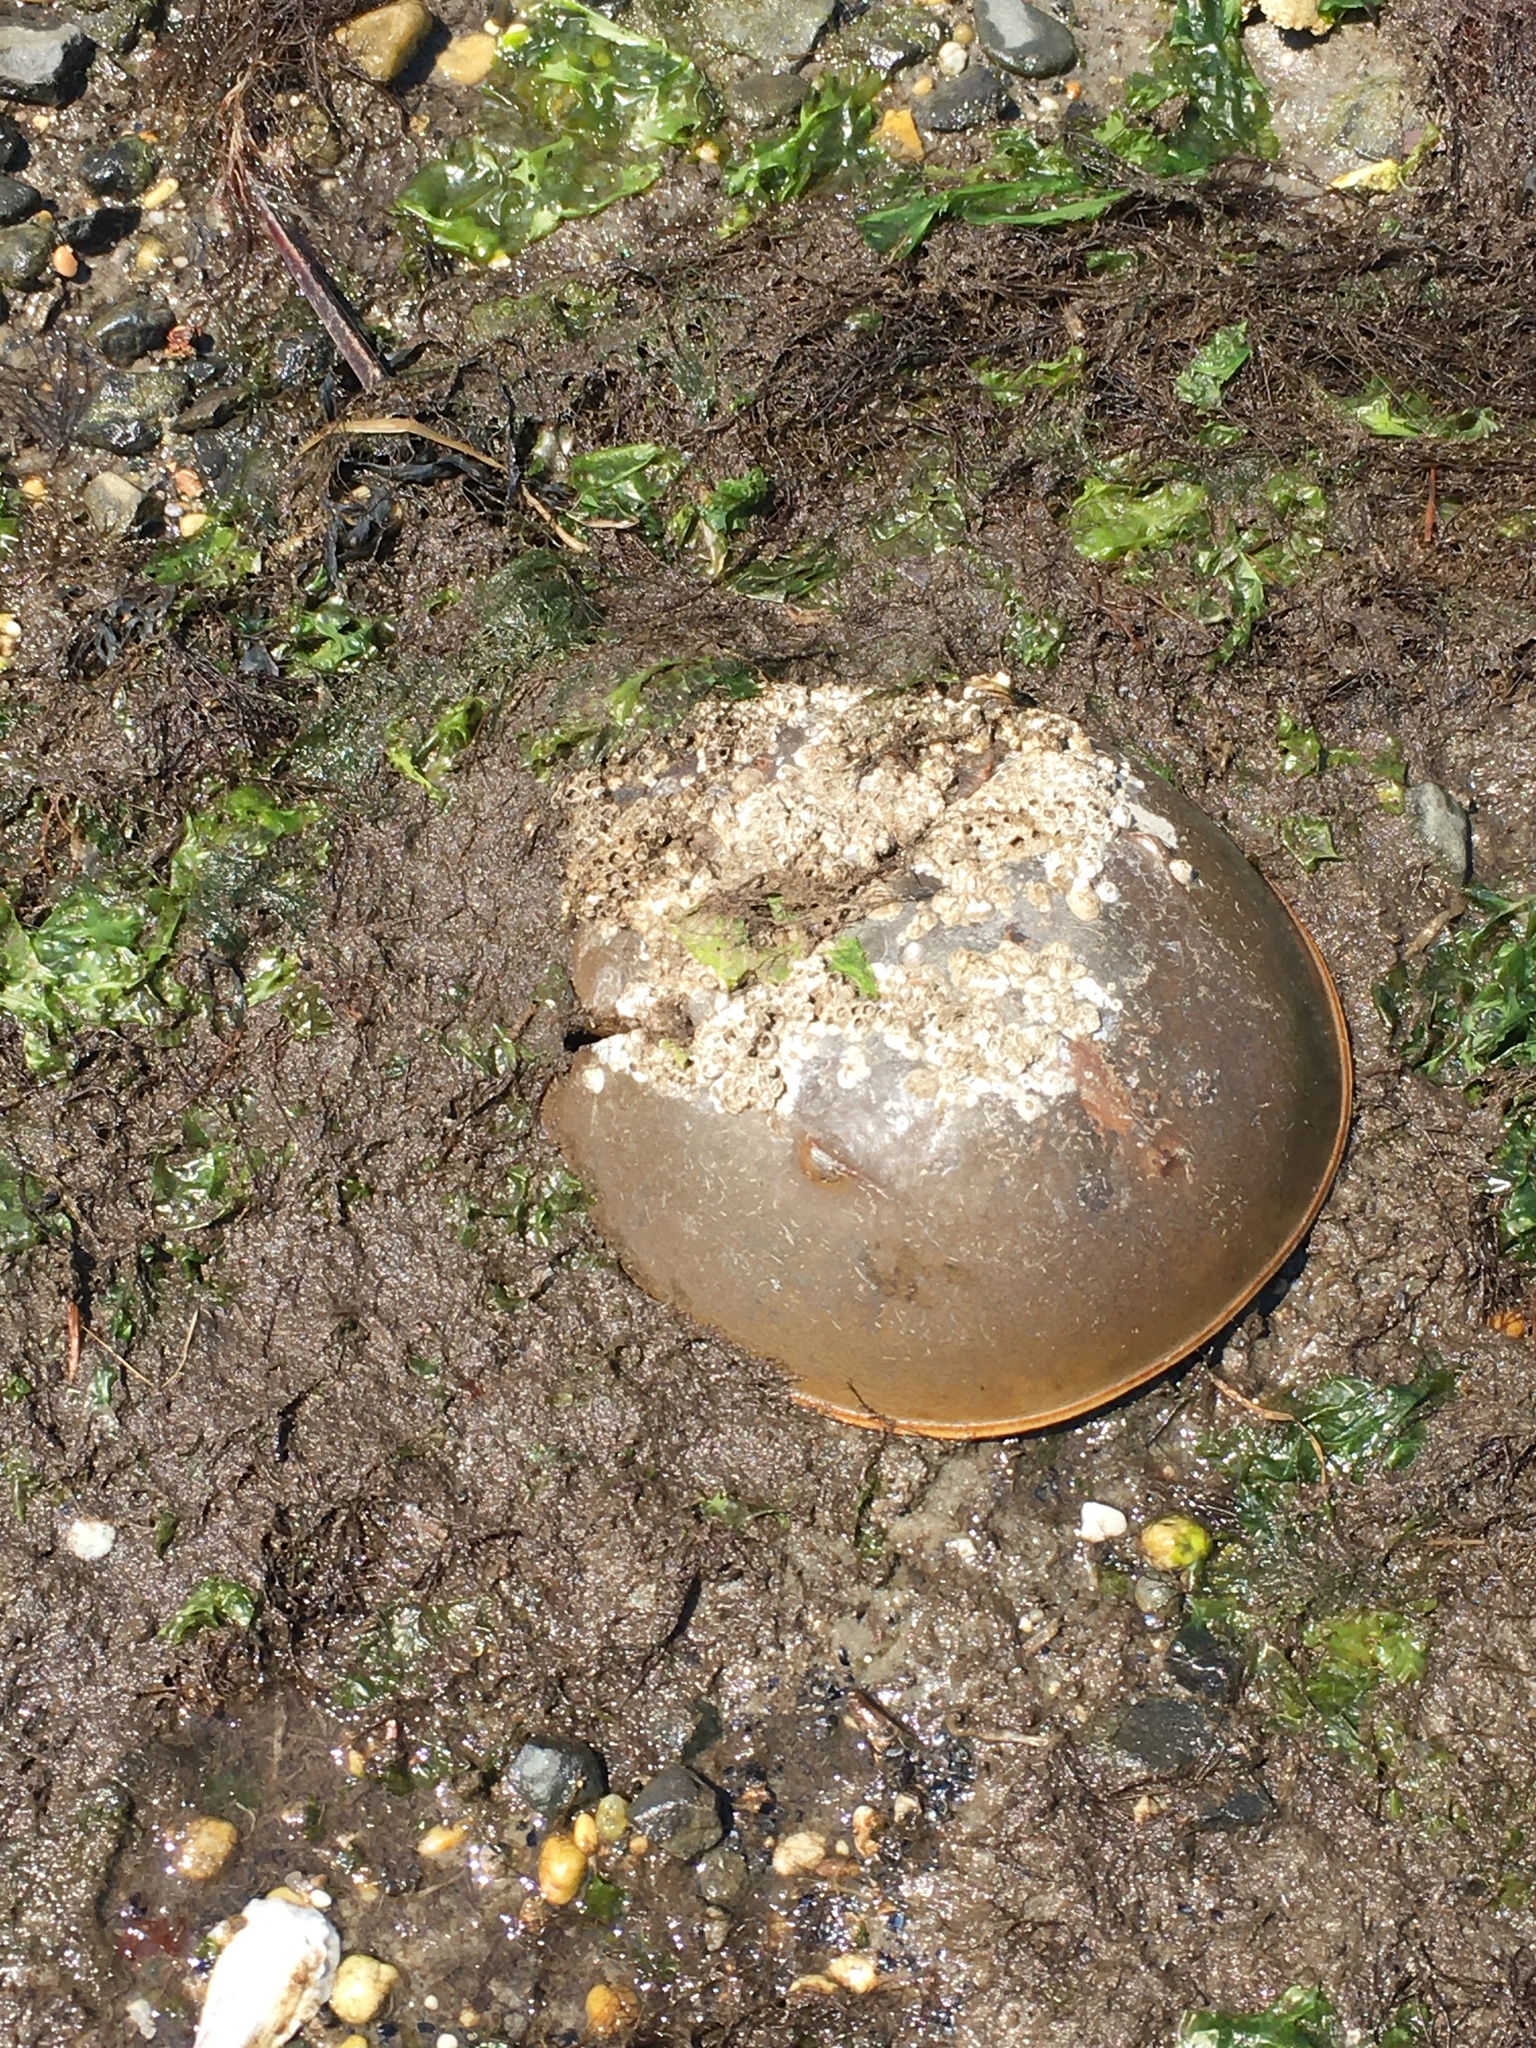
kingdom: Animalia
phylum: Arthropoda
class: Merostomata
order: Xiphosurida
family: Limulidae
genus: Limulus
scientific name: Limulus polyphemus
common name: Horseshoe crab
